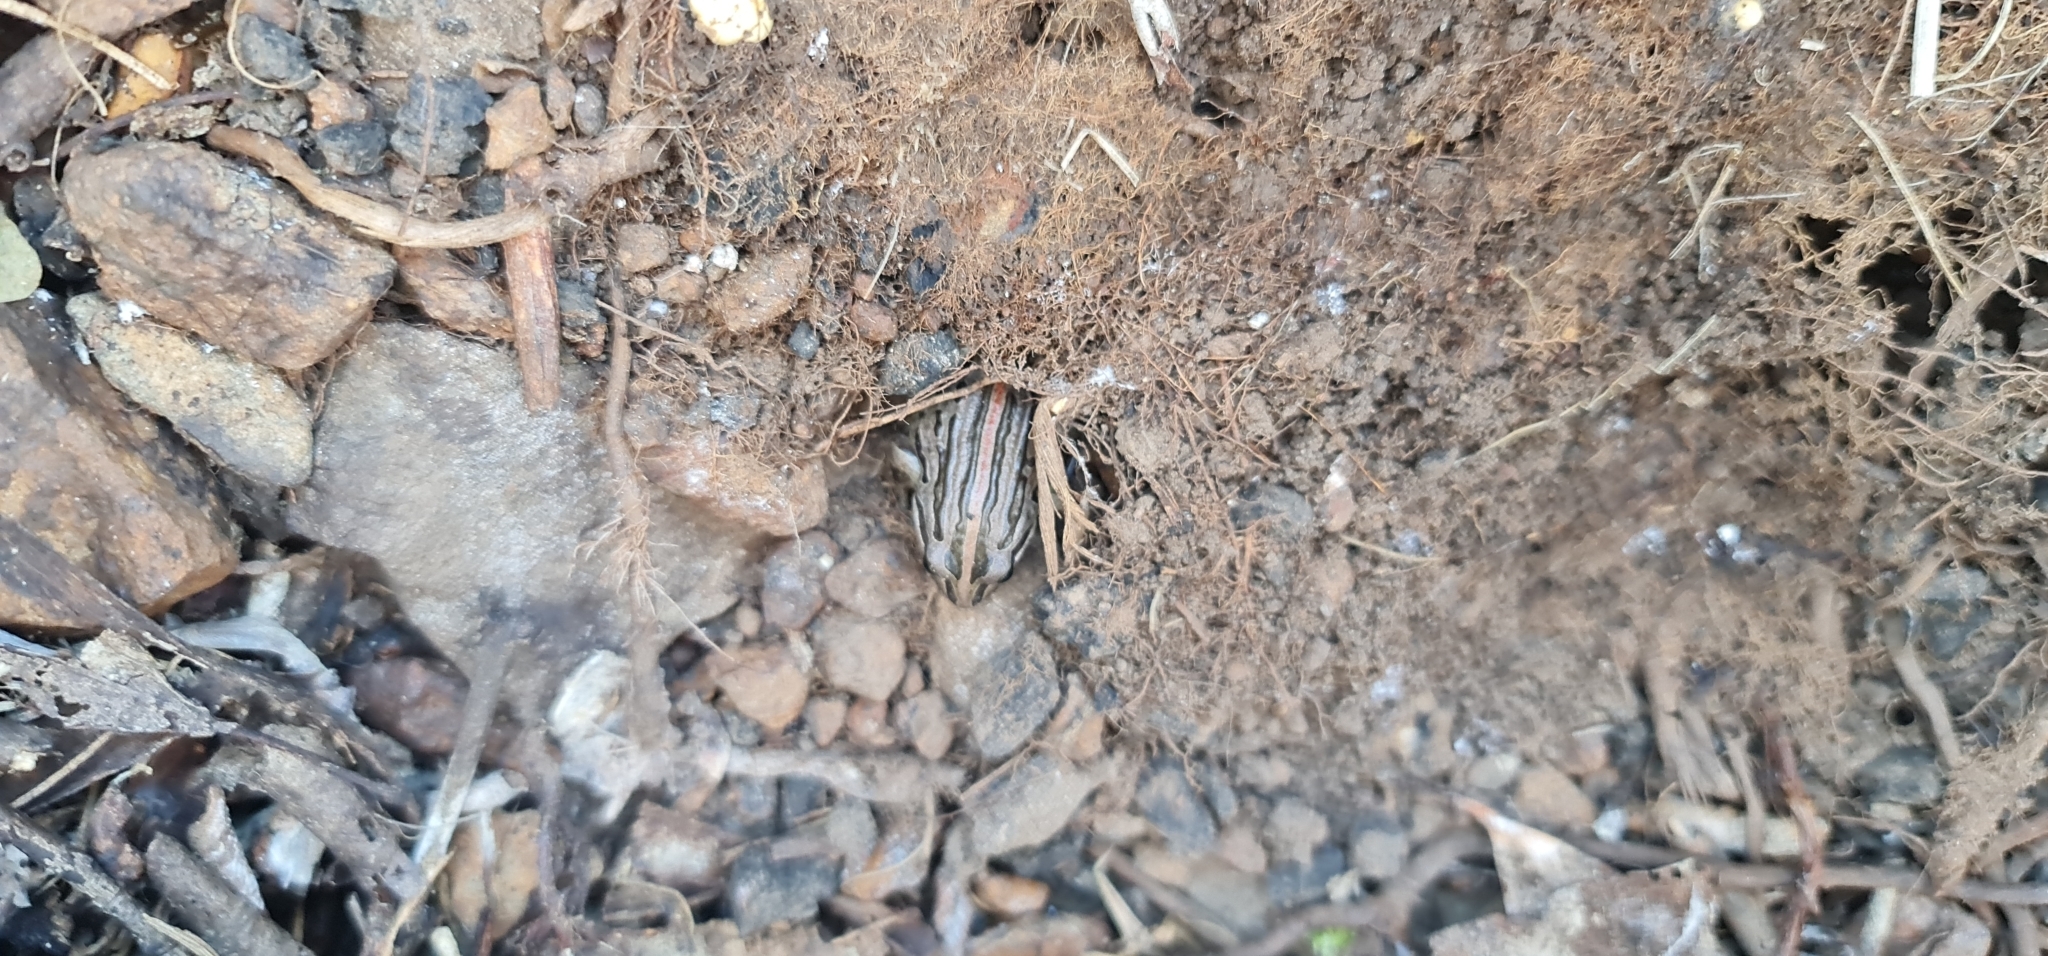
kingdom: Animalia
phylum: Chordata
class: Amphibia
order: Anura
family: Limnodynastidae
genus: Limnodynastes
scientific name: Limnodynastes peronii
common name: Brown frog
